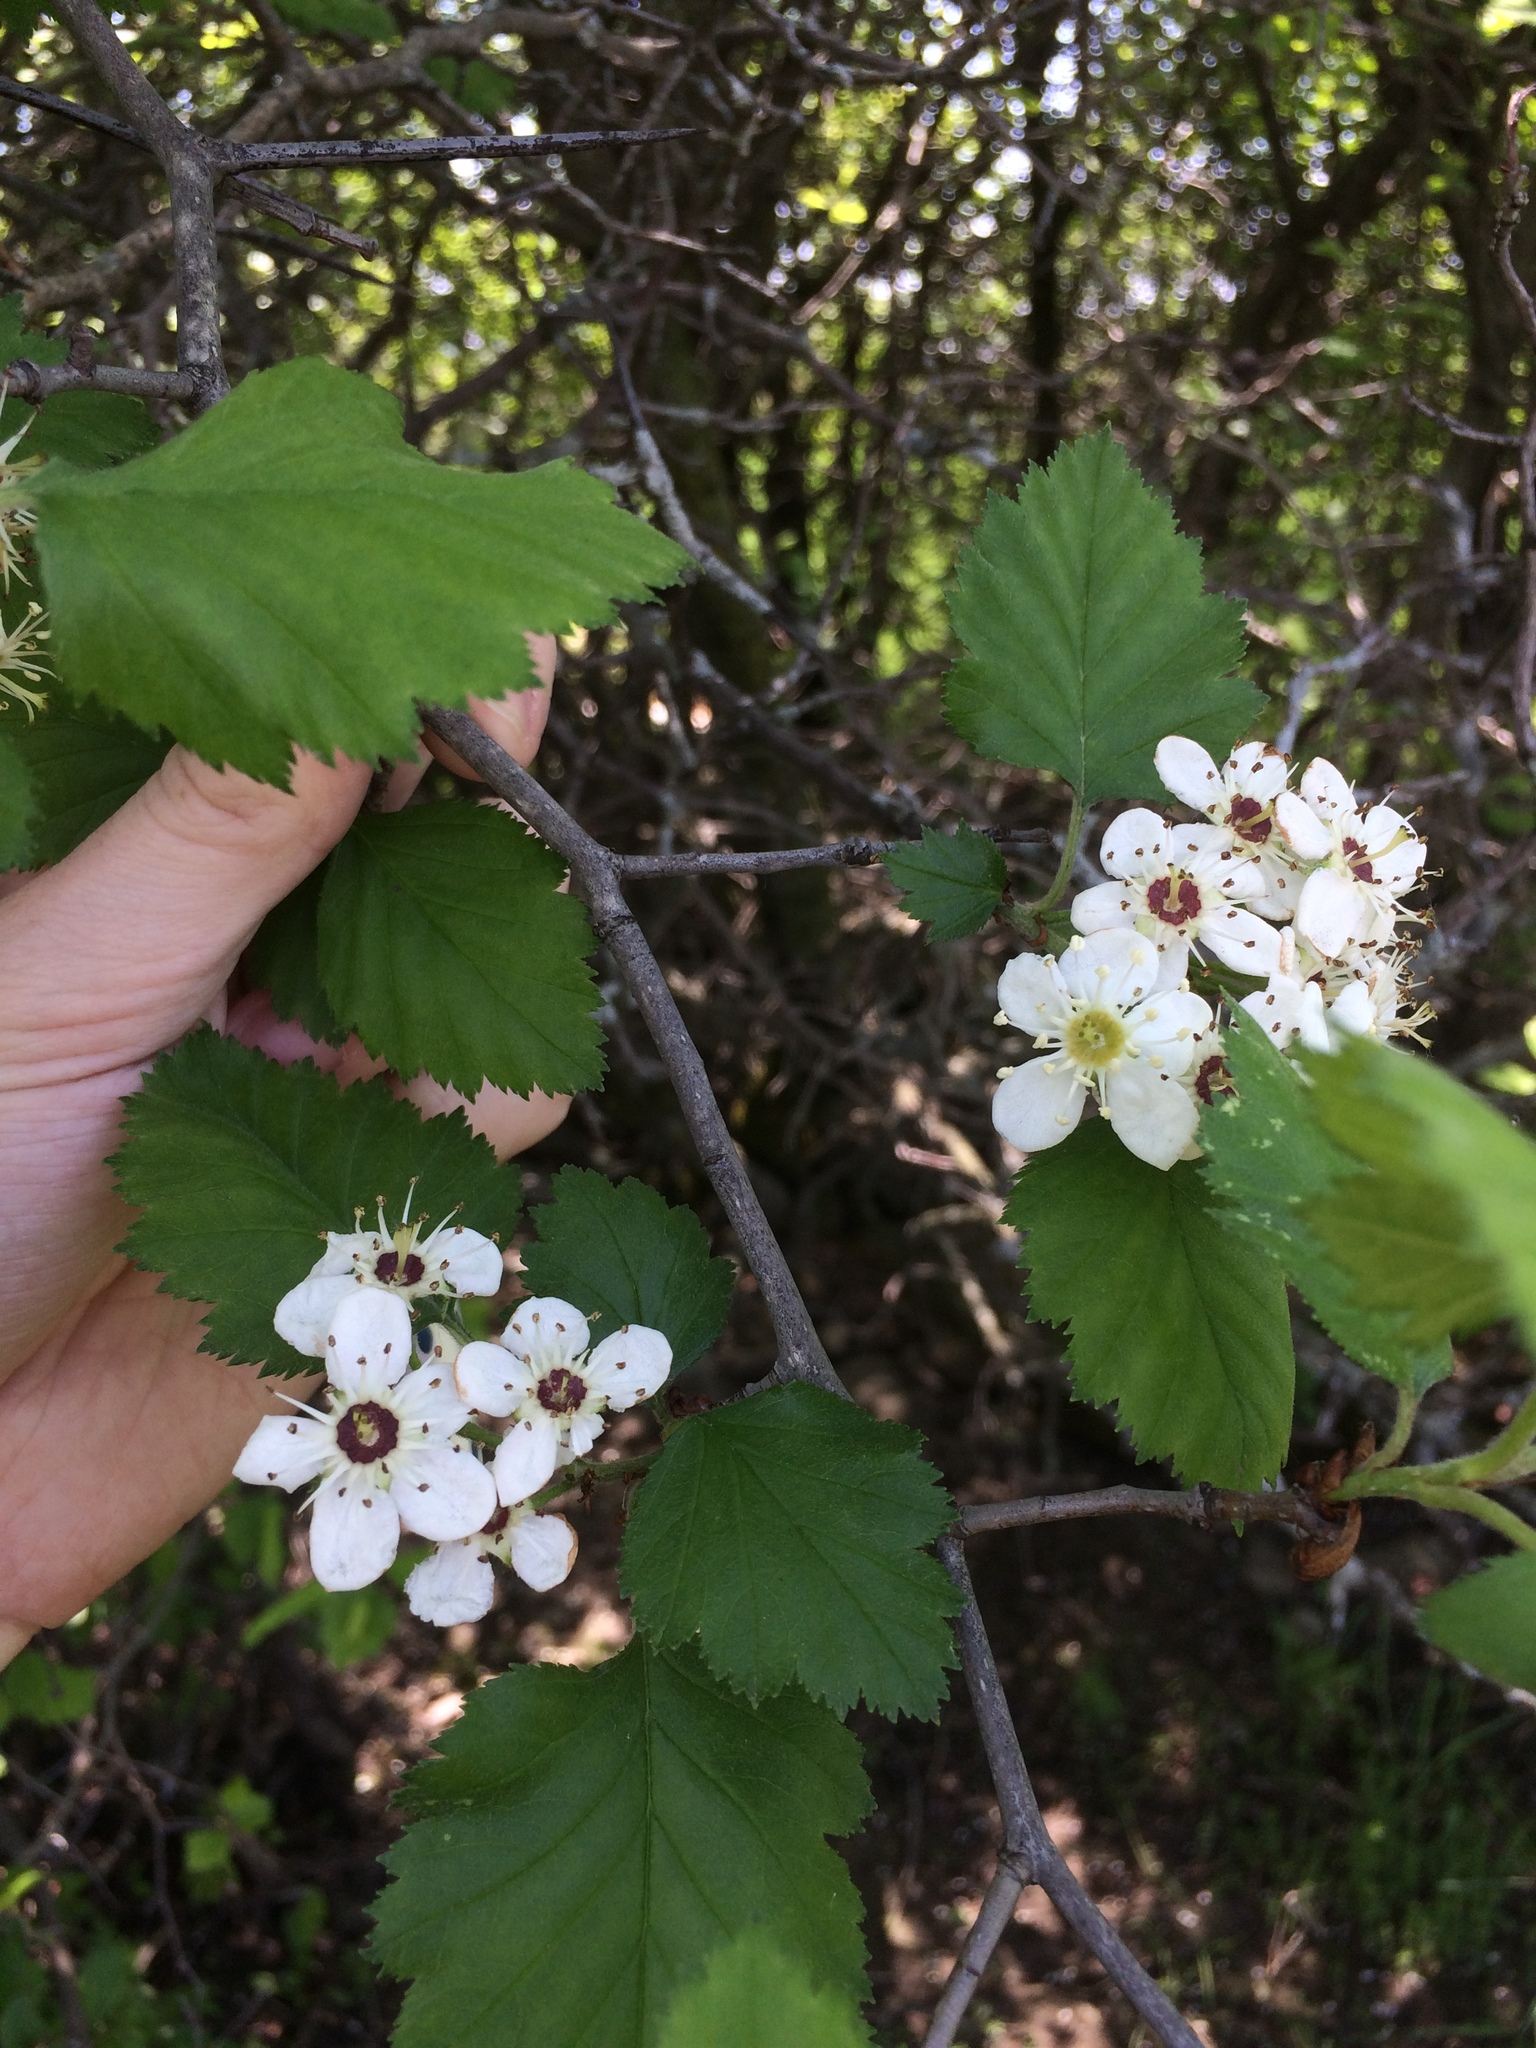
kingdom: Plantae
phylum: Tracheophyta
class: Magnoliopsida
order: Rosales
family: Rosaceae
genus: Crataegus
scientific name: Crataegus submollis
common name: Hairy cockspurthorn
